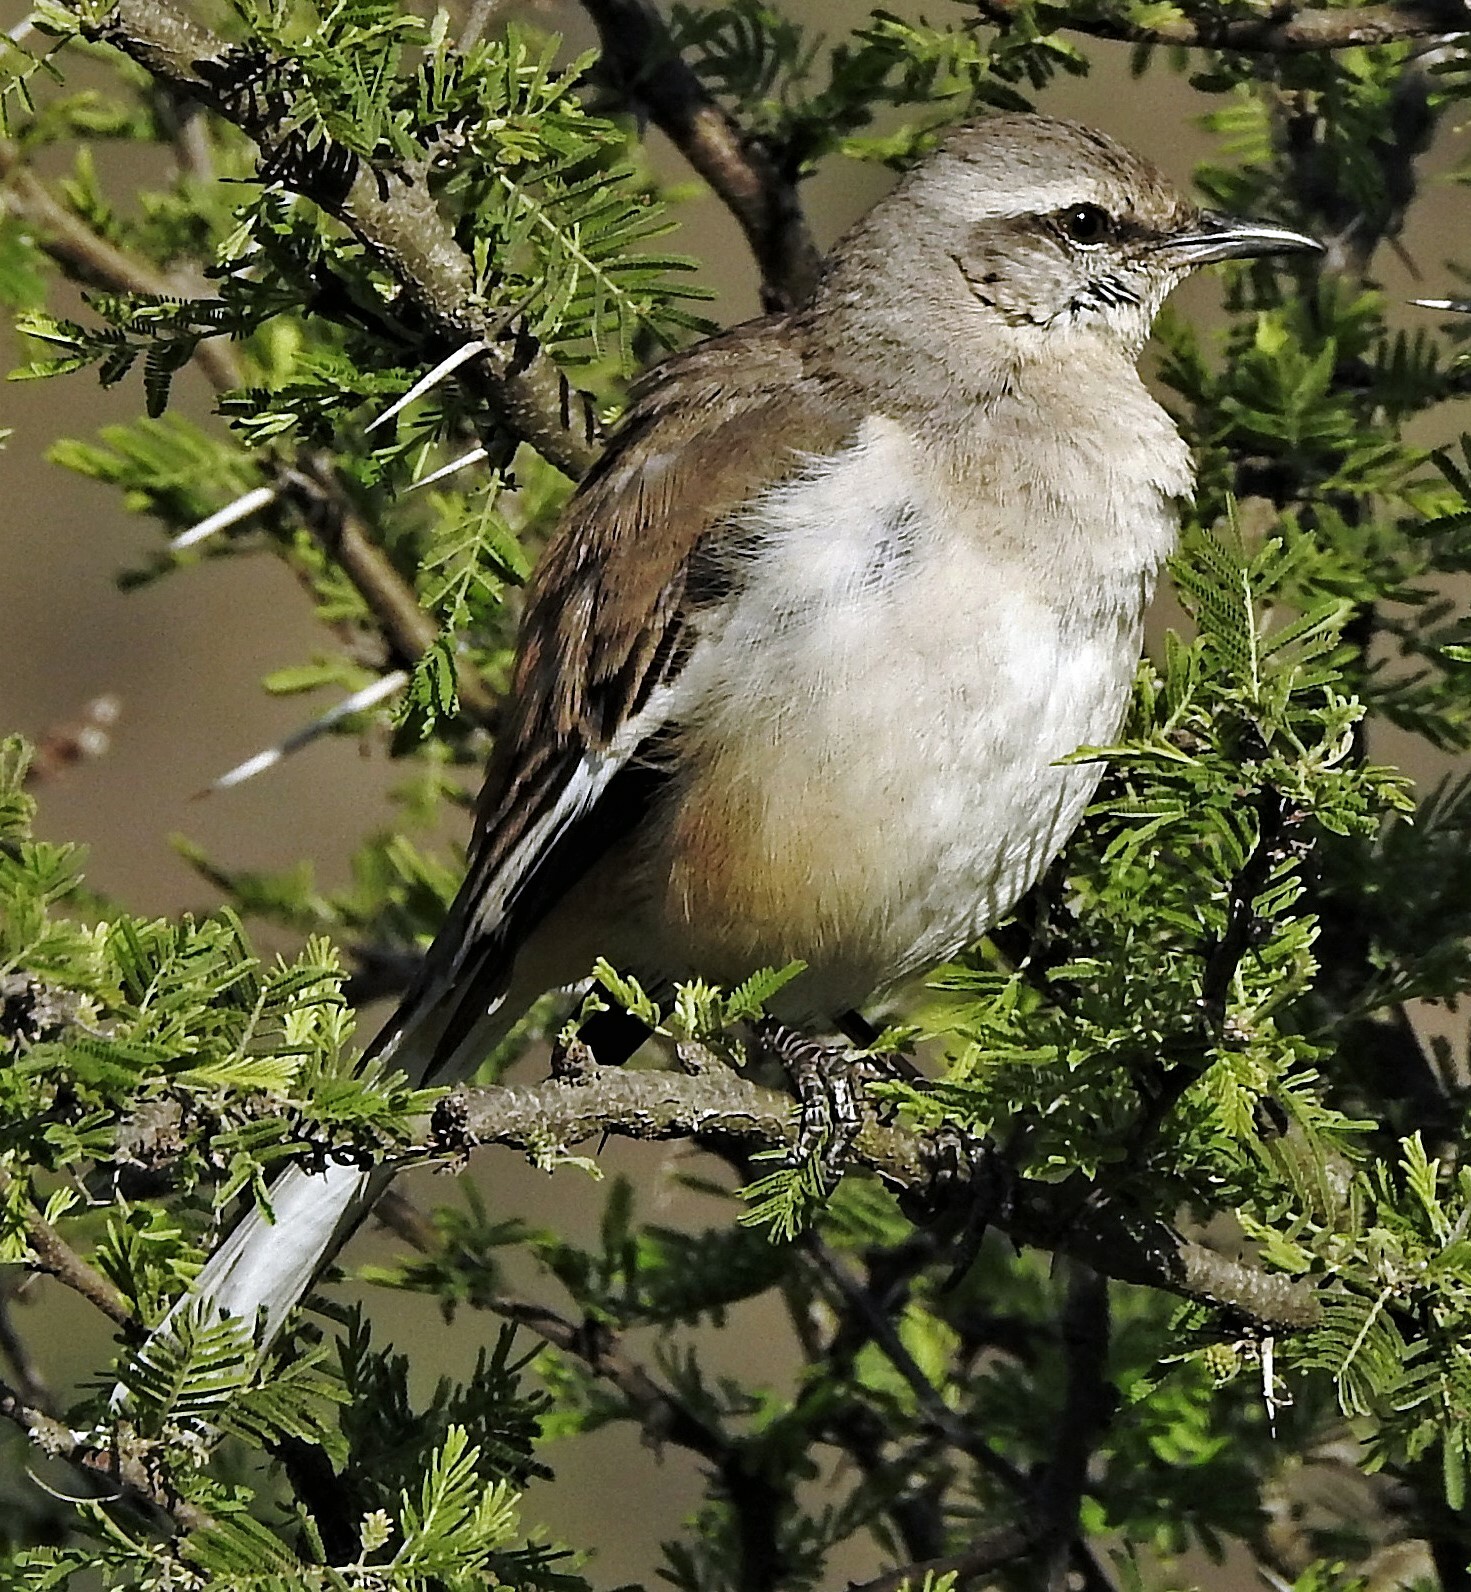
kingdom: Animalia
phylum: Chordata
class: Aves
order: Passeriformes
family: Mimidae
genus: Mimus
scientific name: Mimus triurus
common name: White-banded mockingbird
